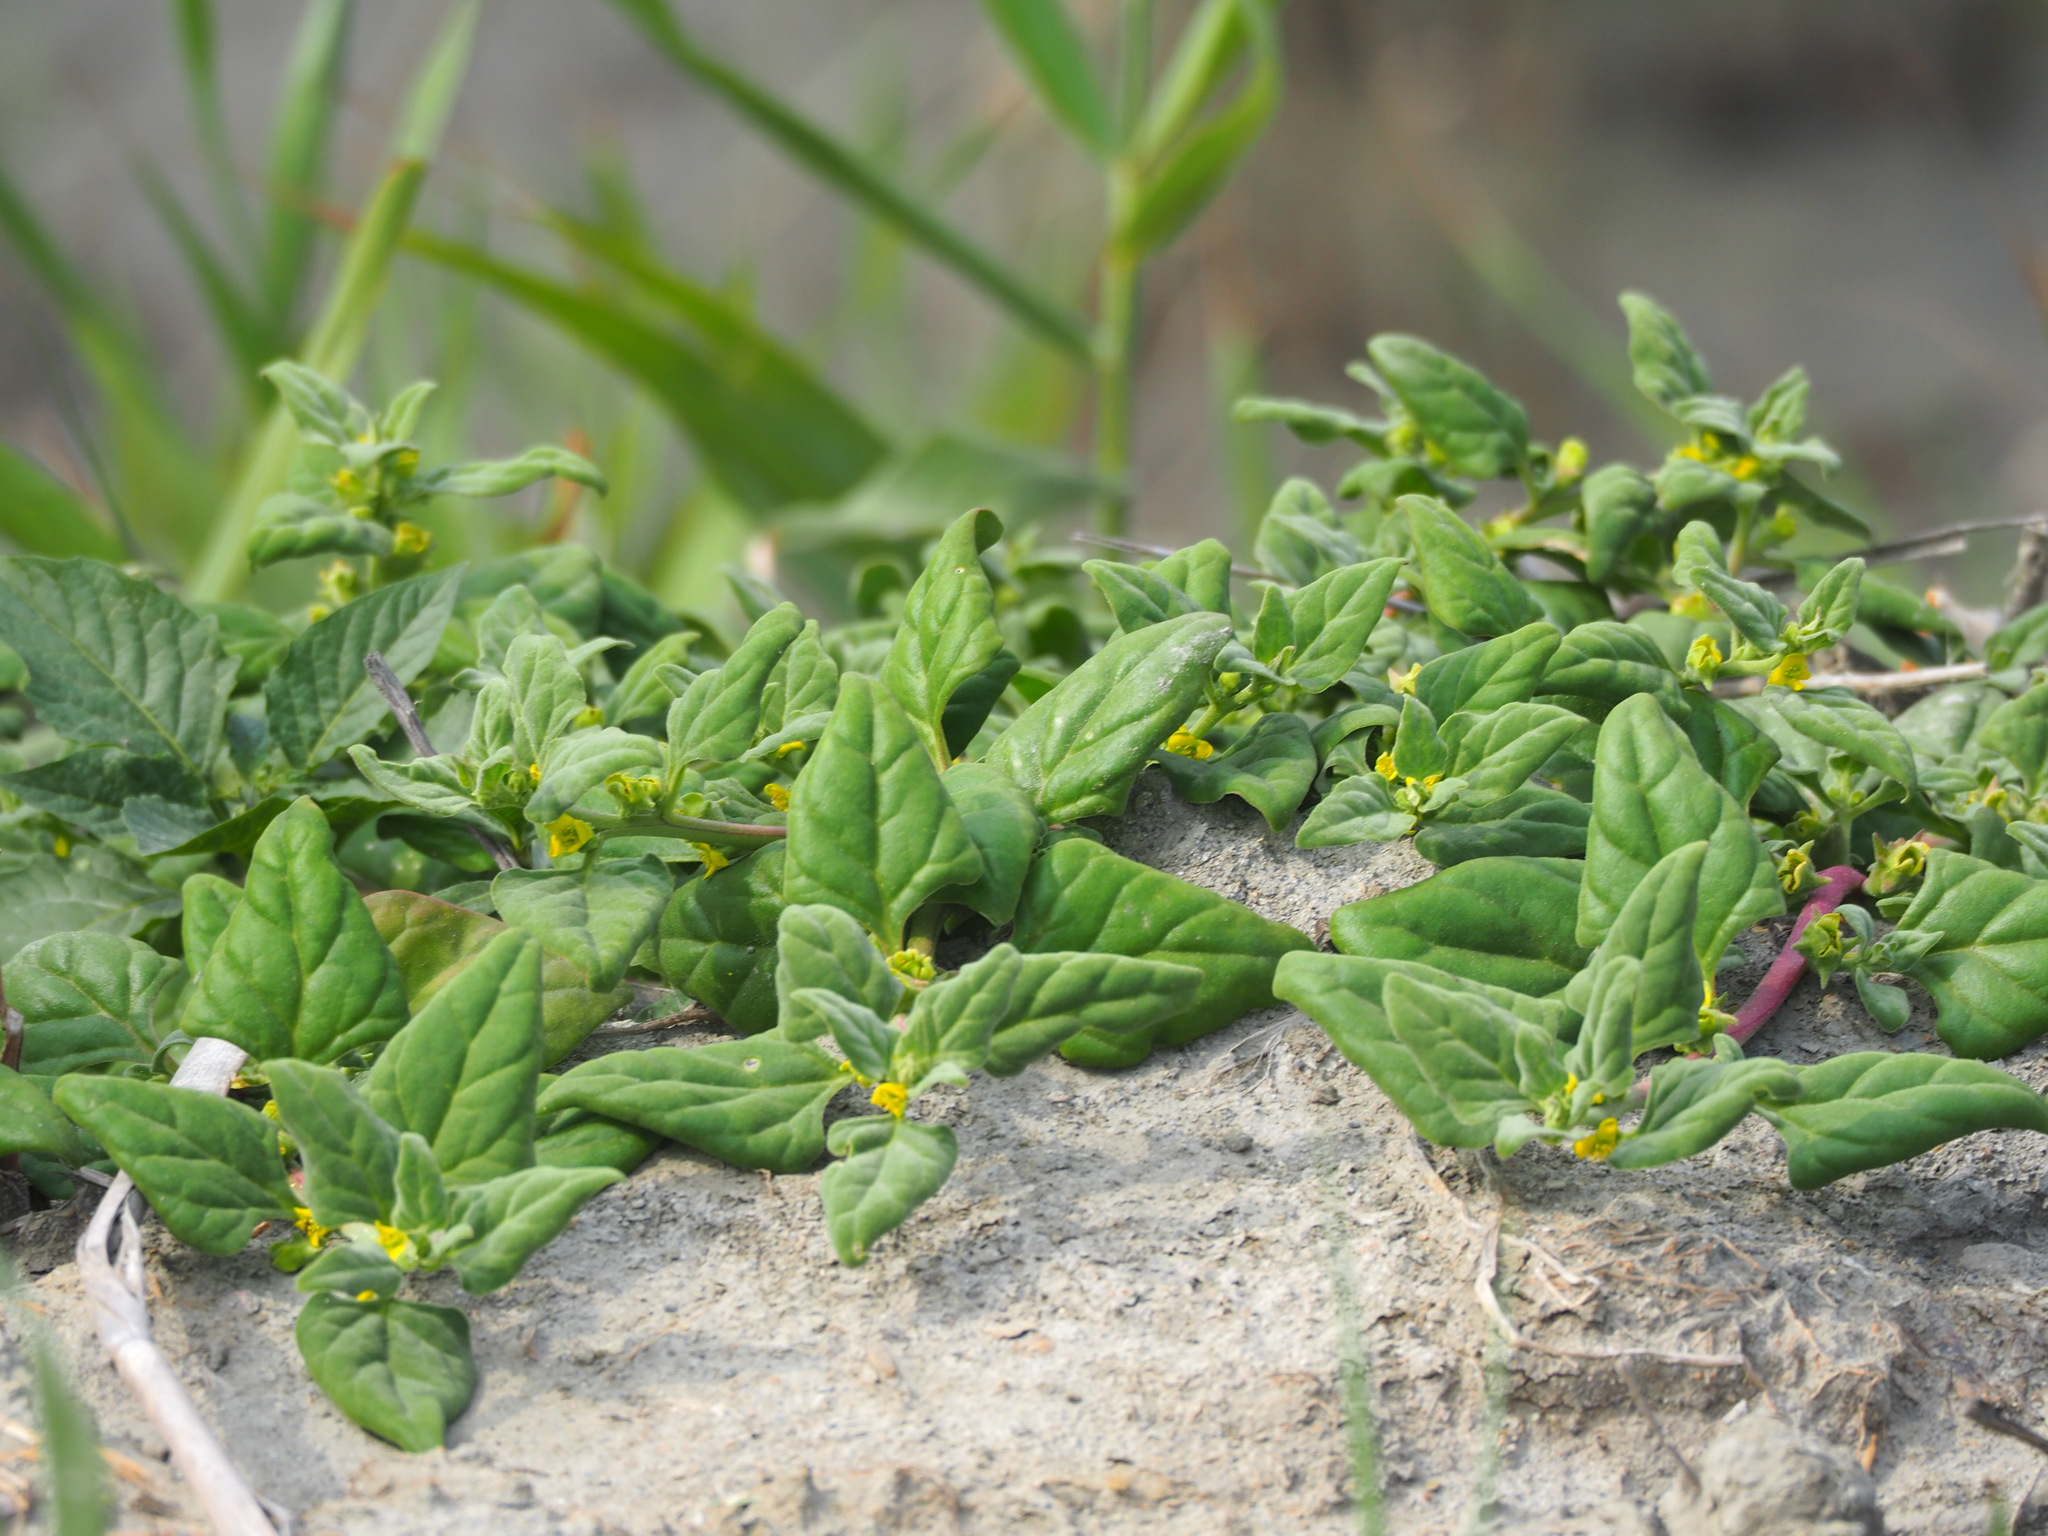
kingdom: Plantae
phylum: Tracheophyta
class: Magnoliopsida
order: Caryophyllales
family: Aizoaceae
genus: Tetragonia
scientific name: Tetragonia tetragonoides
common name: New zealand-spinach
